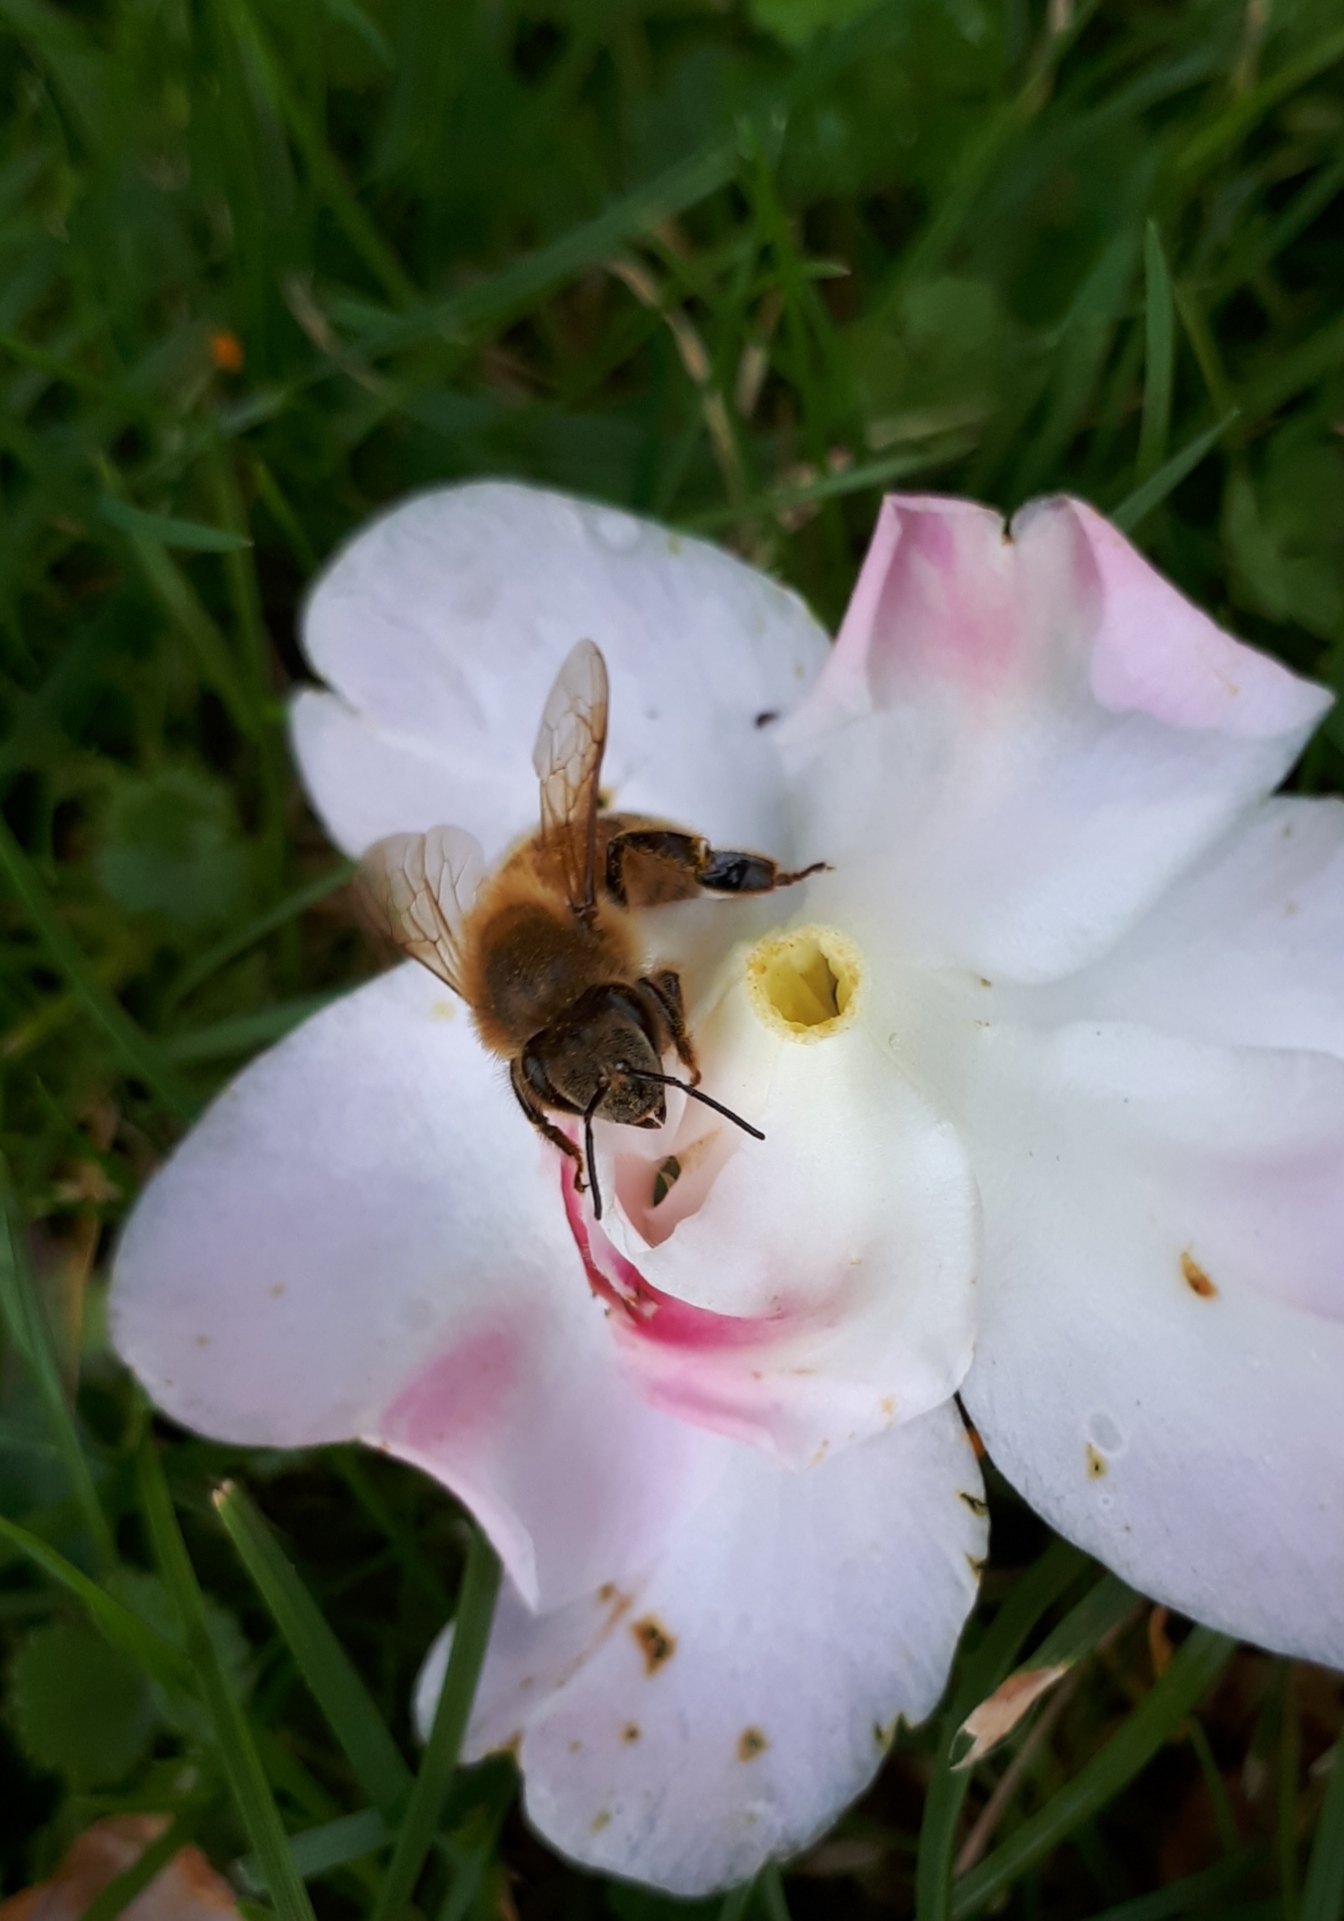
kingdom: Animalia
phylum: Arthropoda
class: Insecta
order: Hymenoptera
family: Apidae
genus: Apis
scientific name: Apis mellifera
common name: Honey bee
